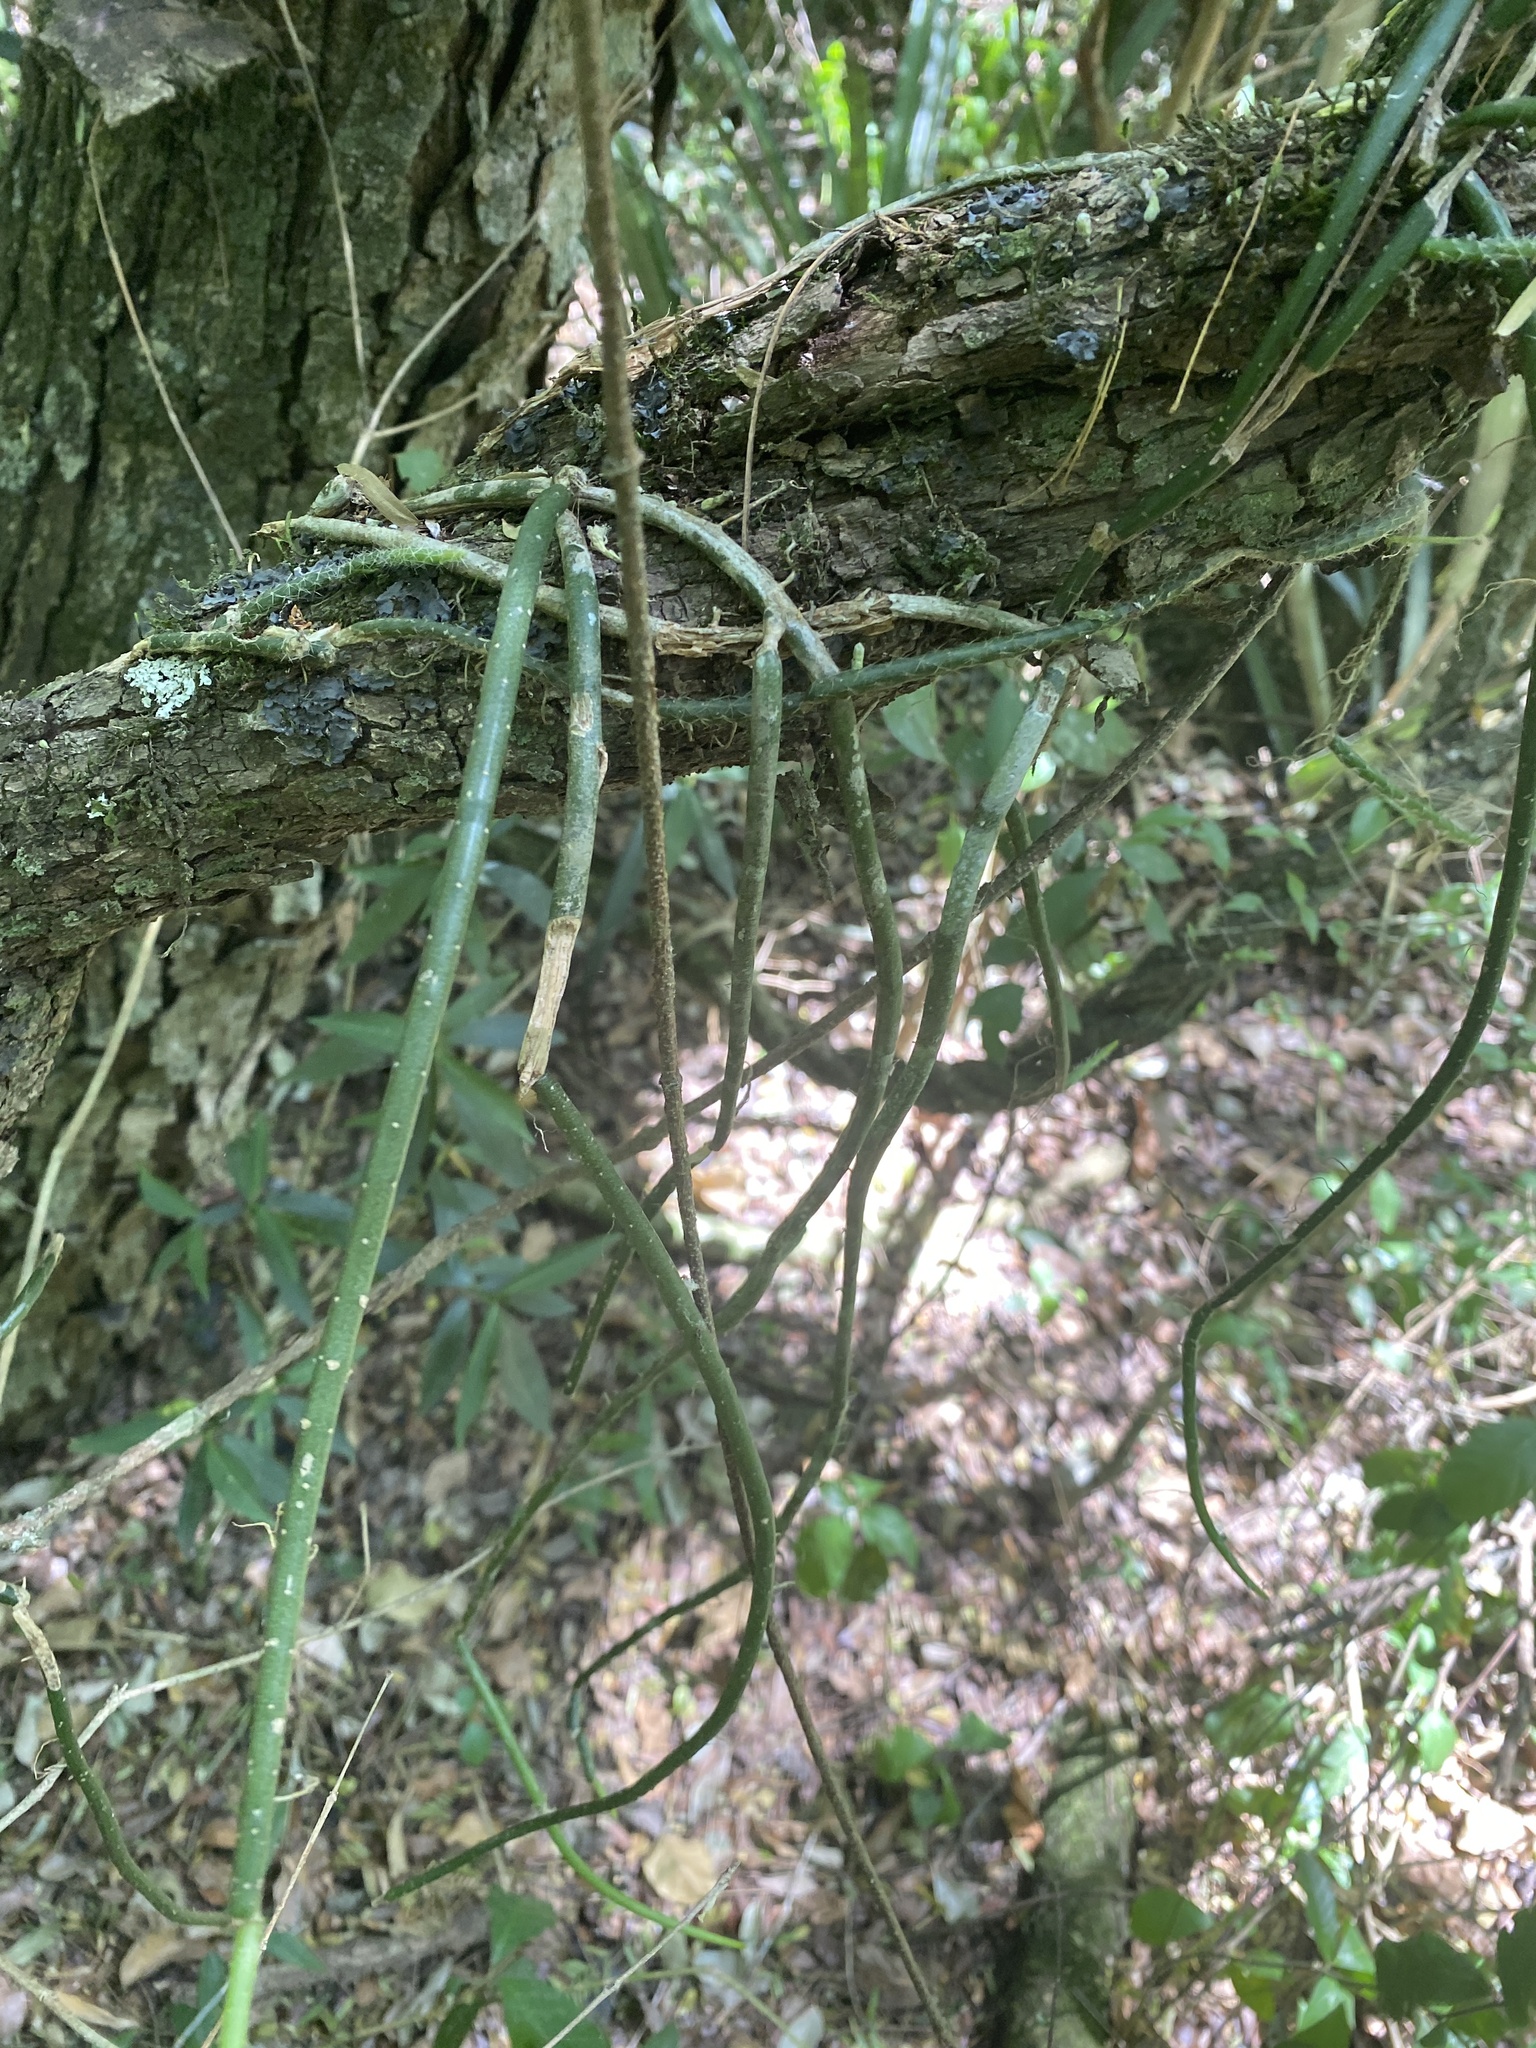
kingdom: Plantae
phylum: Tracheophyta
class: Magnoliopsida
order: Caryophyllales
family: Cactaceae
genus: Lepismium
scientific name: Lepismium lumbricoides
